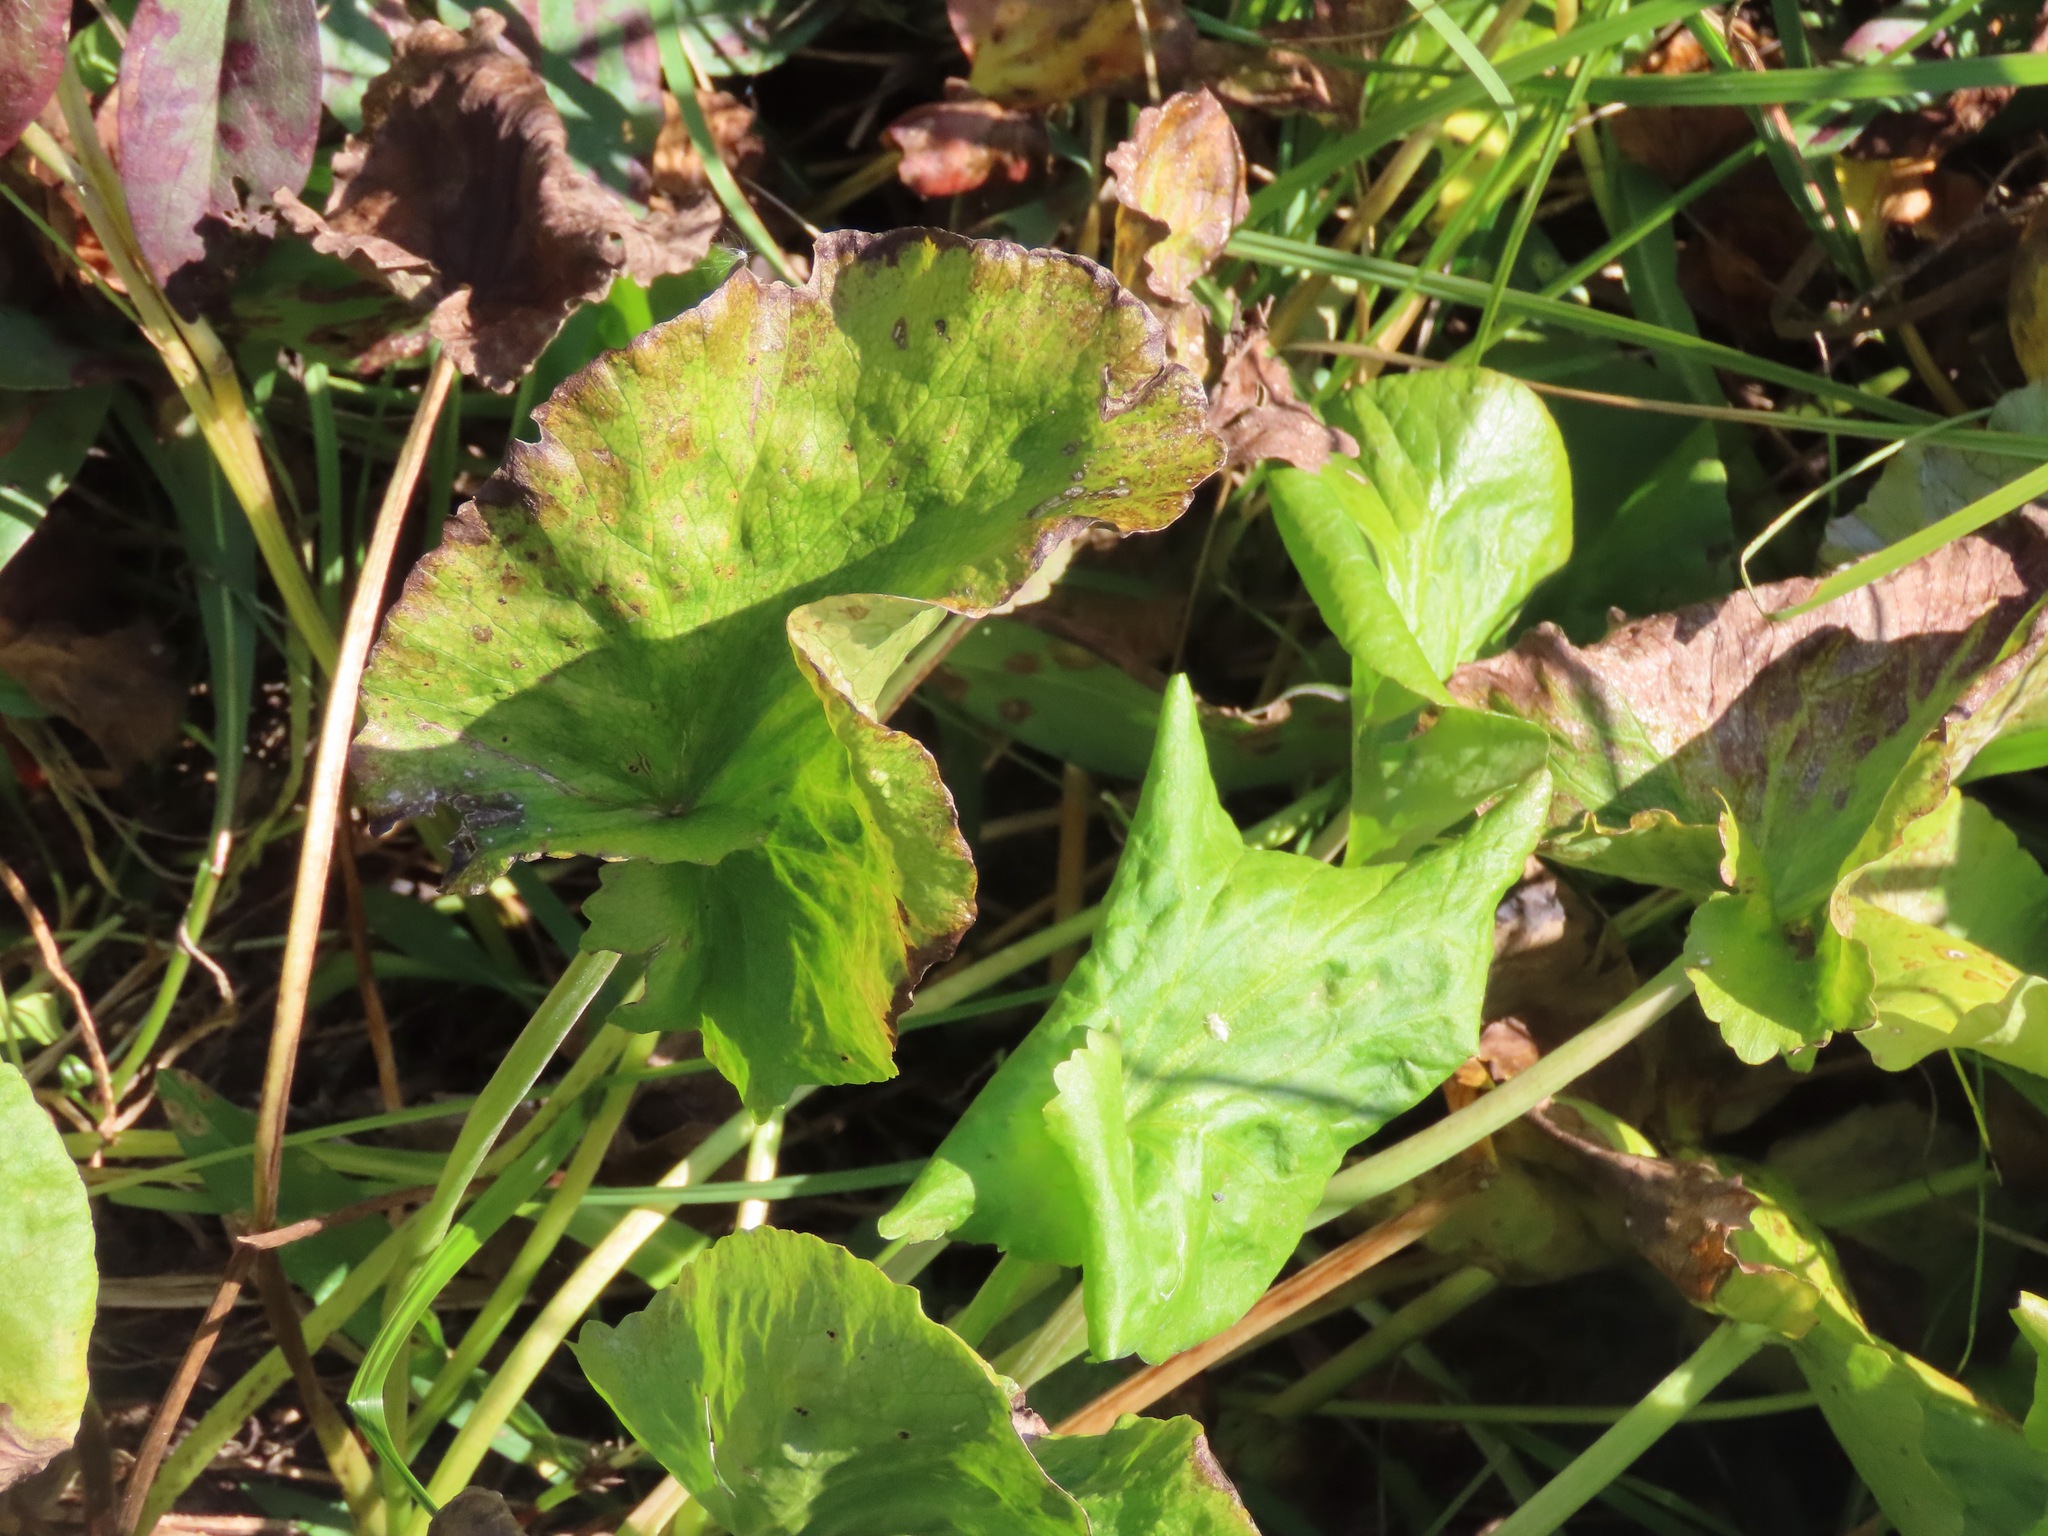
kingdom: Plantae
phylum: Tracheophyta
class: Magnoliopsida
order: Ranunculales
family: Ranunculaceae
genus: Caltha
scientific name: Caltha palustris
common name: Marsh marigold
